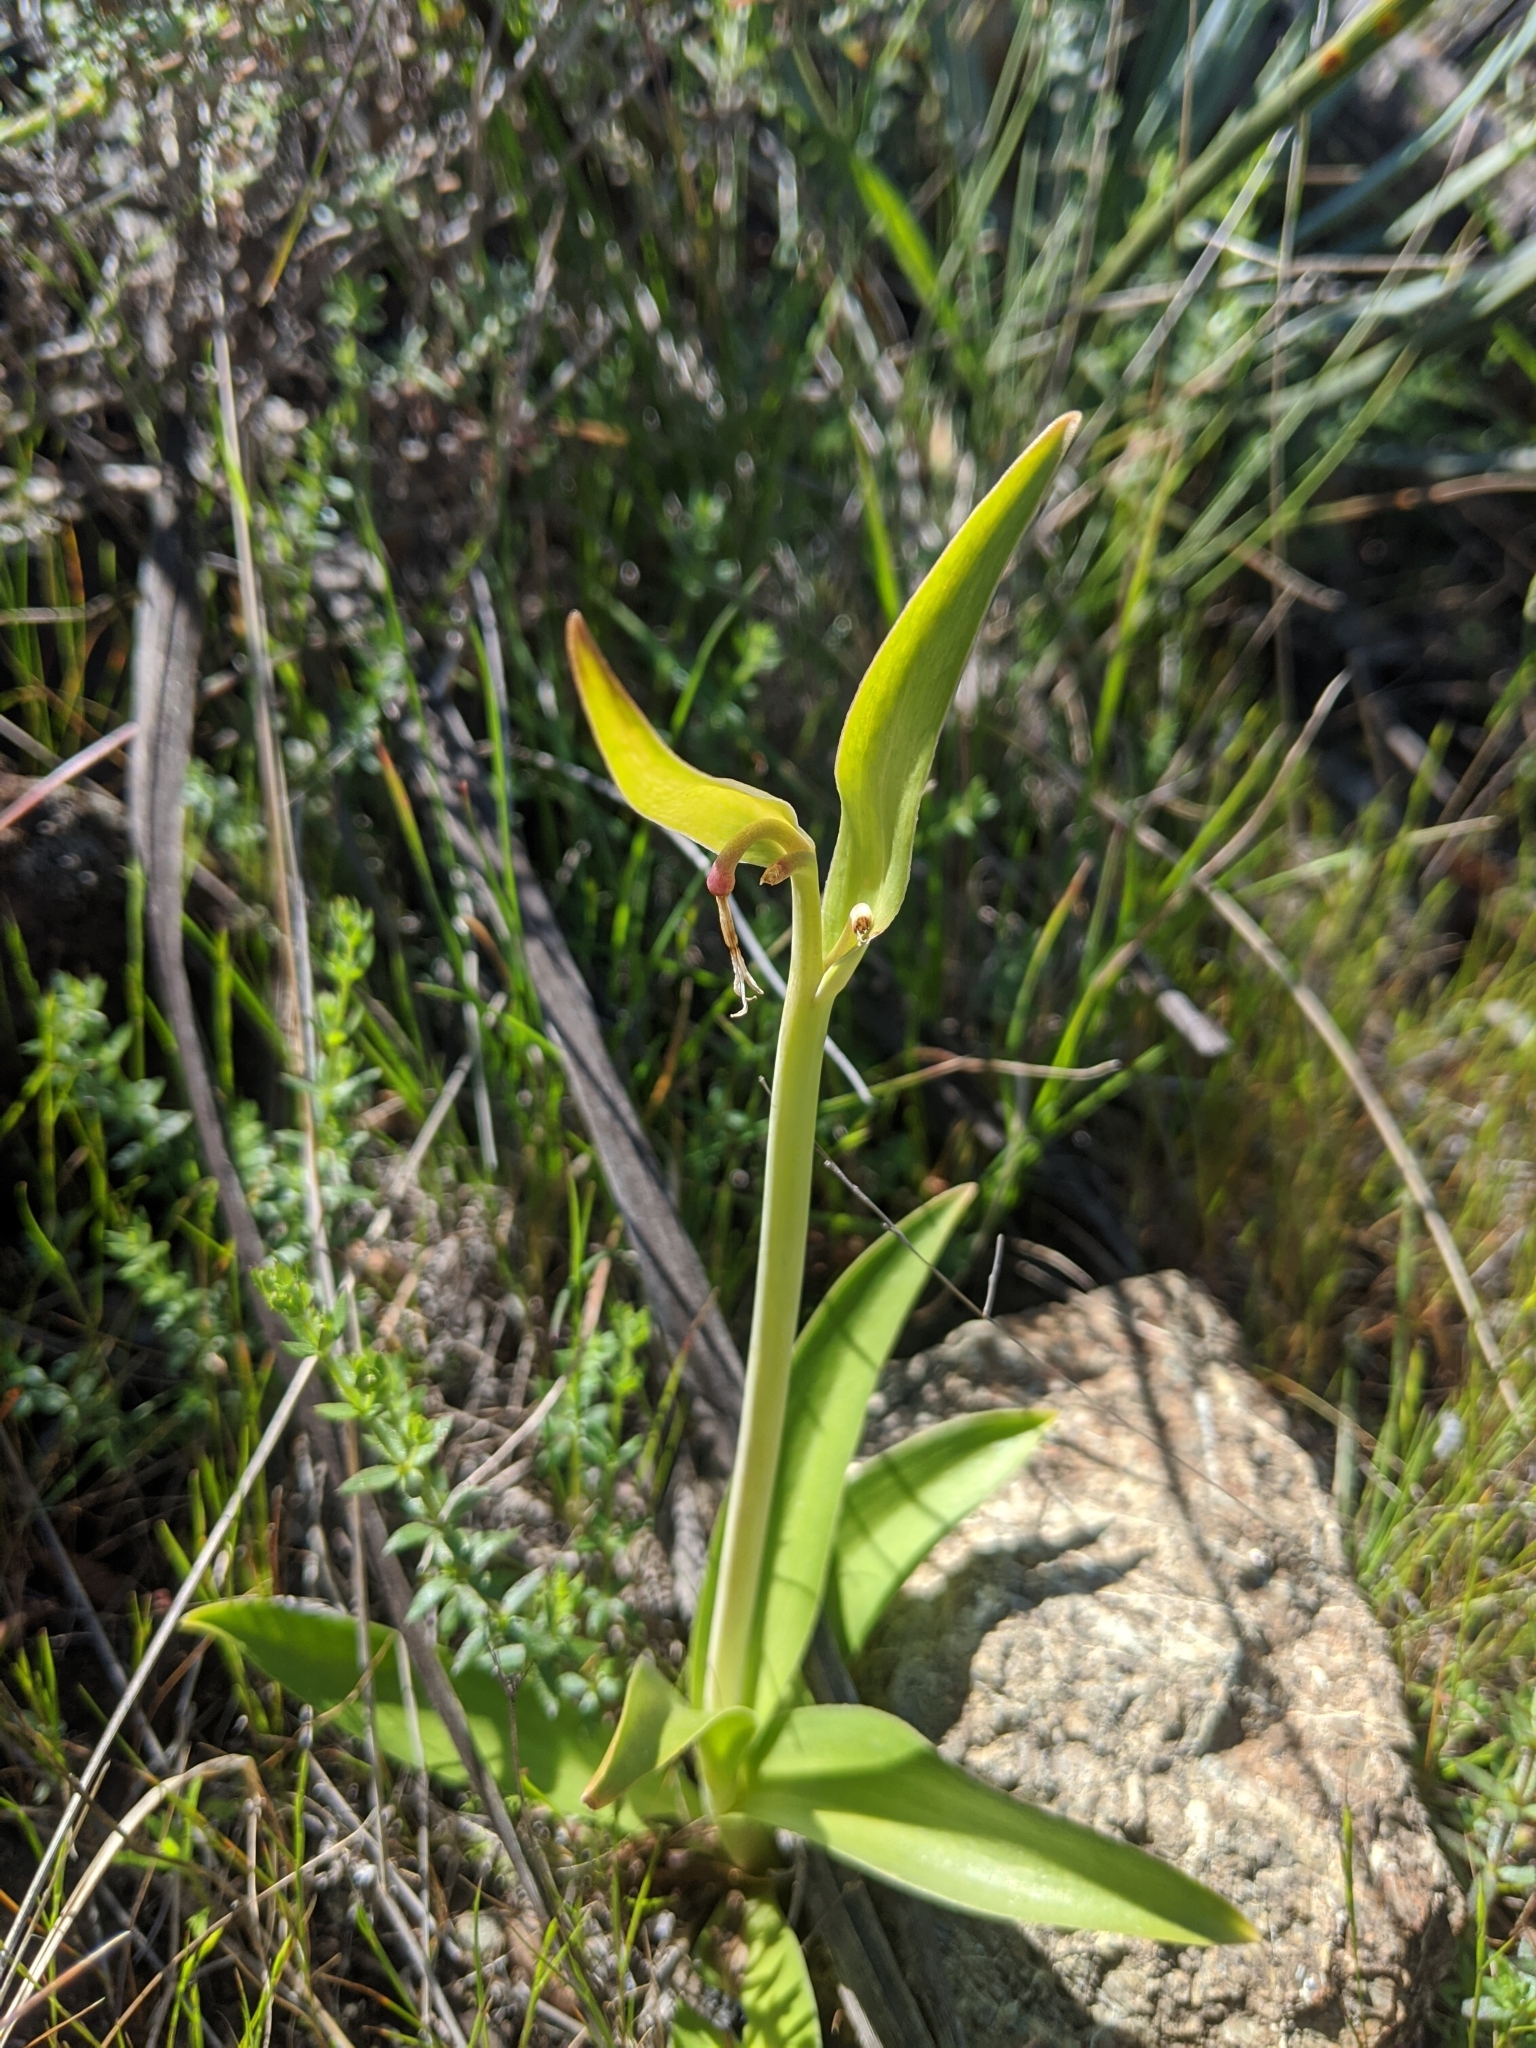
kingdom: Plantae
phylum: Tracheophyta
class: Liliopsida
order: Liliales
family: Liliaceae
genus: Fritillaria
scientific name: Fritillaria biflora
